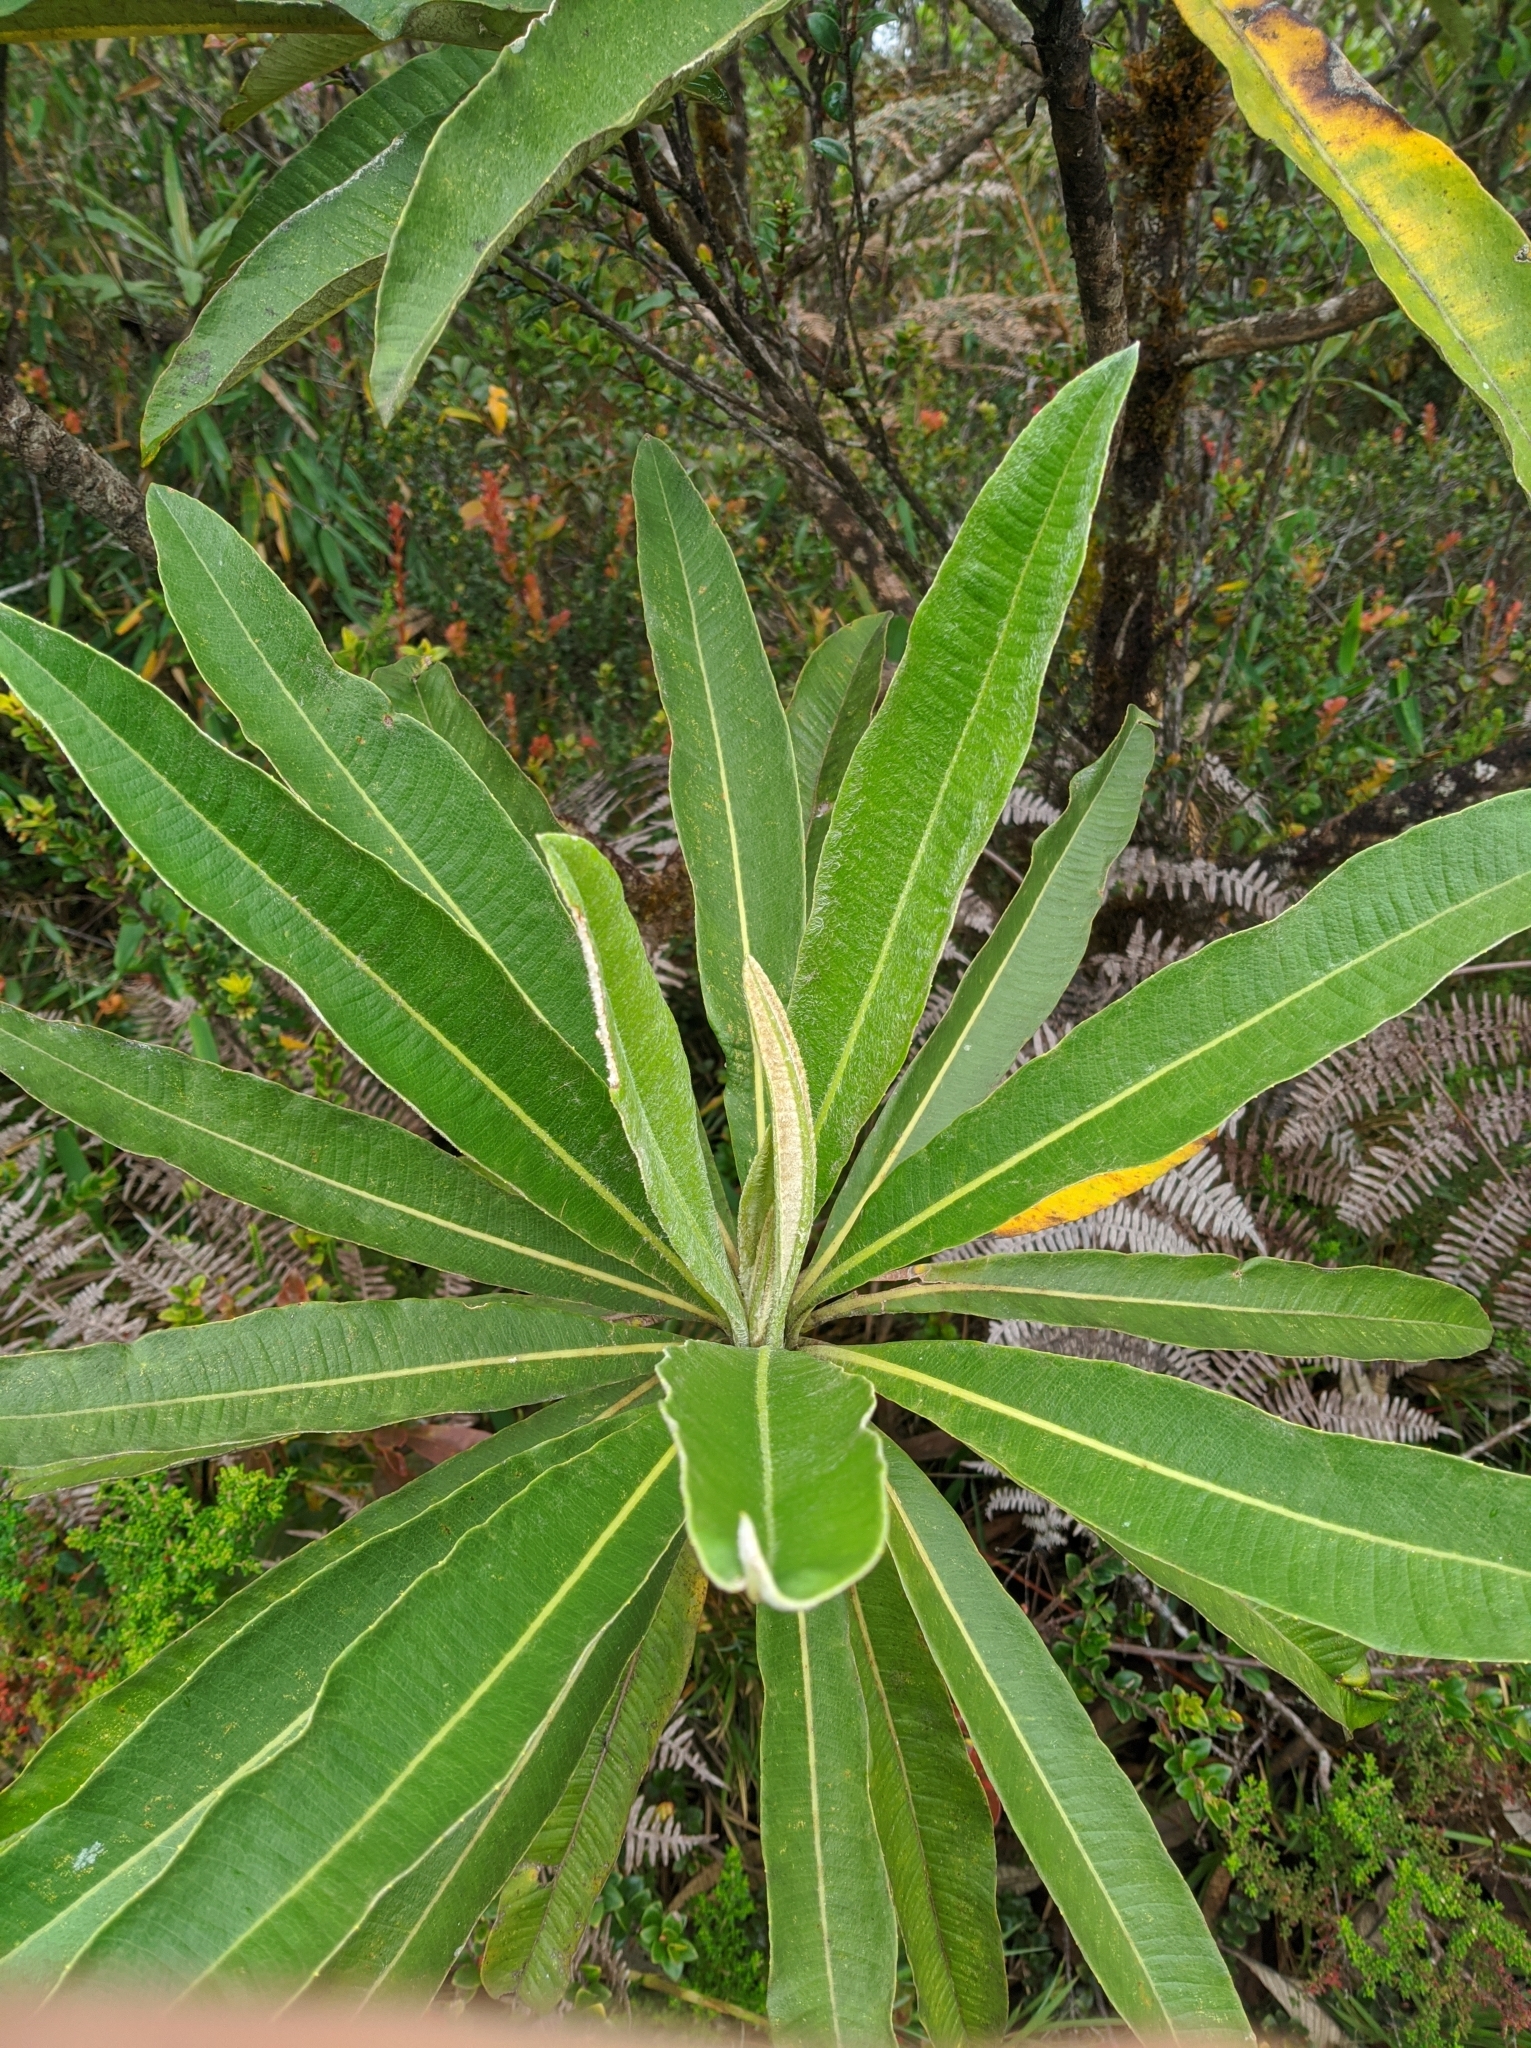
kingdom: Plantae
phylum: Tracheophyta
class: Magnoliopsida
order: Asterales
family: Asteraceae
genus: Espeletia
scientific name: Espeletia neriifolia
